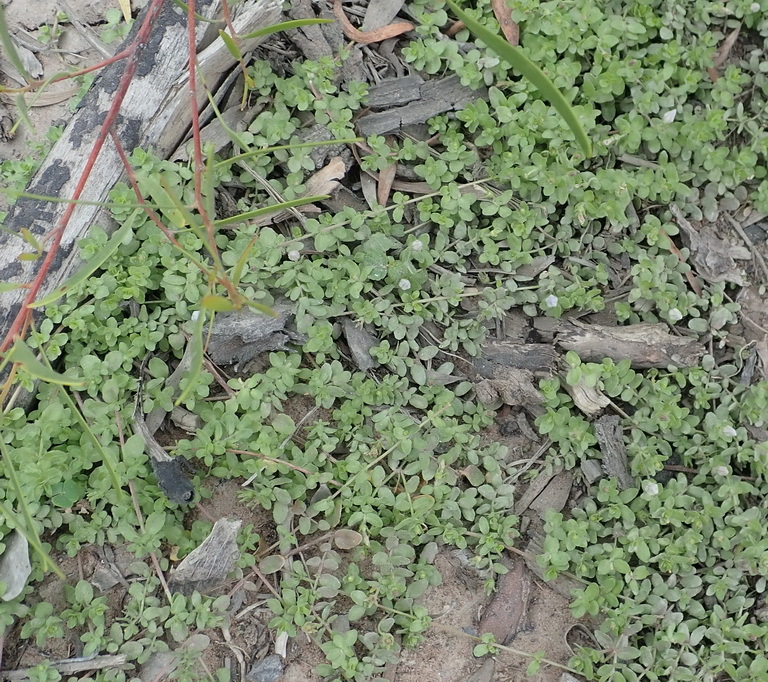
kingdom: Plantae
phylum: Tracheophyta
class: Magnoliopsida
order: Asterales
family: Campanulaceae
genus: Wahlenbergia
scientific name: Wahlenbergia procumbens
